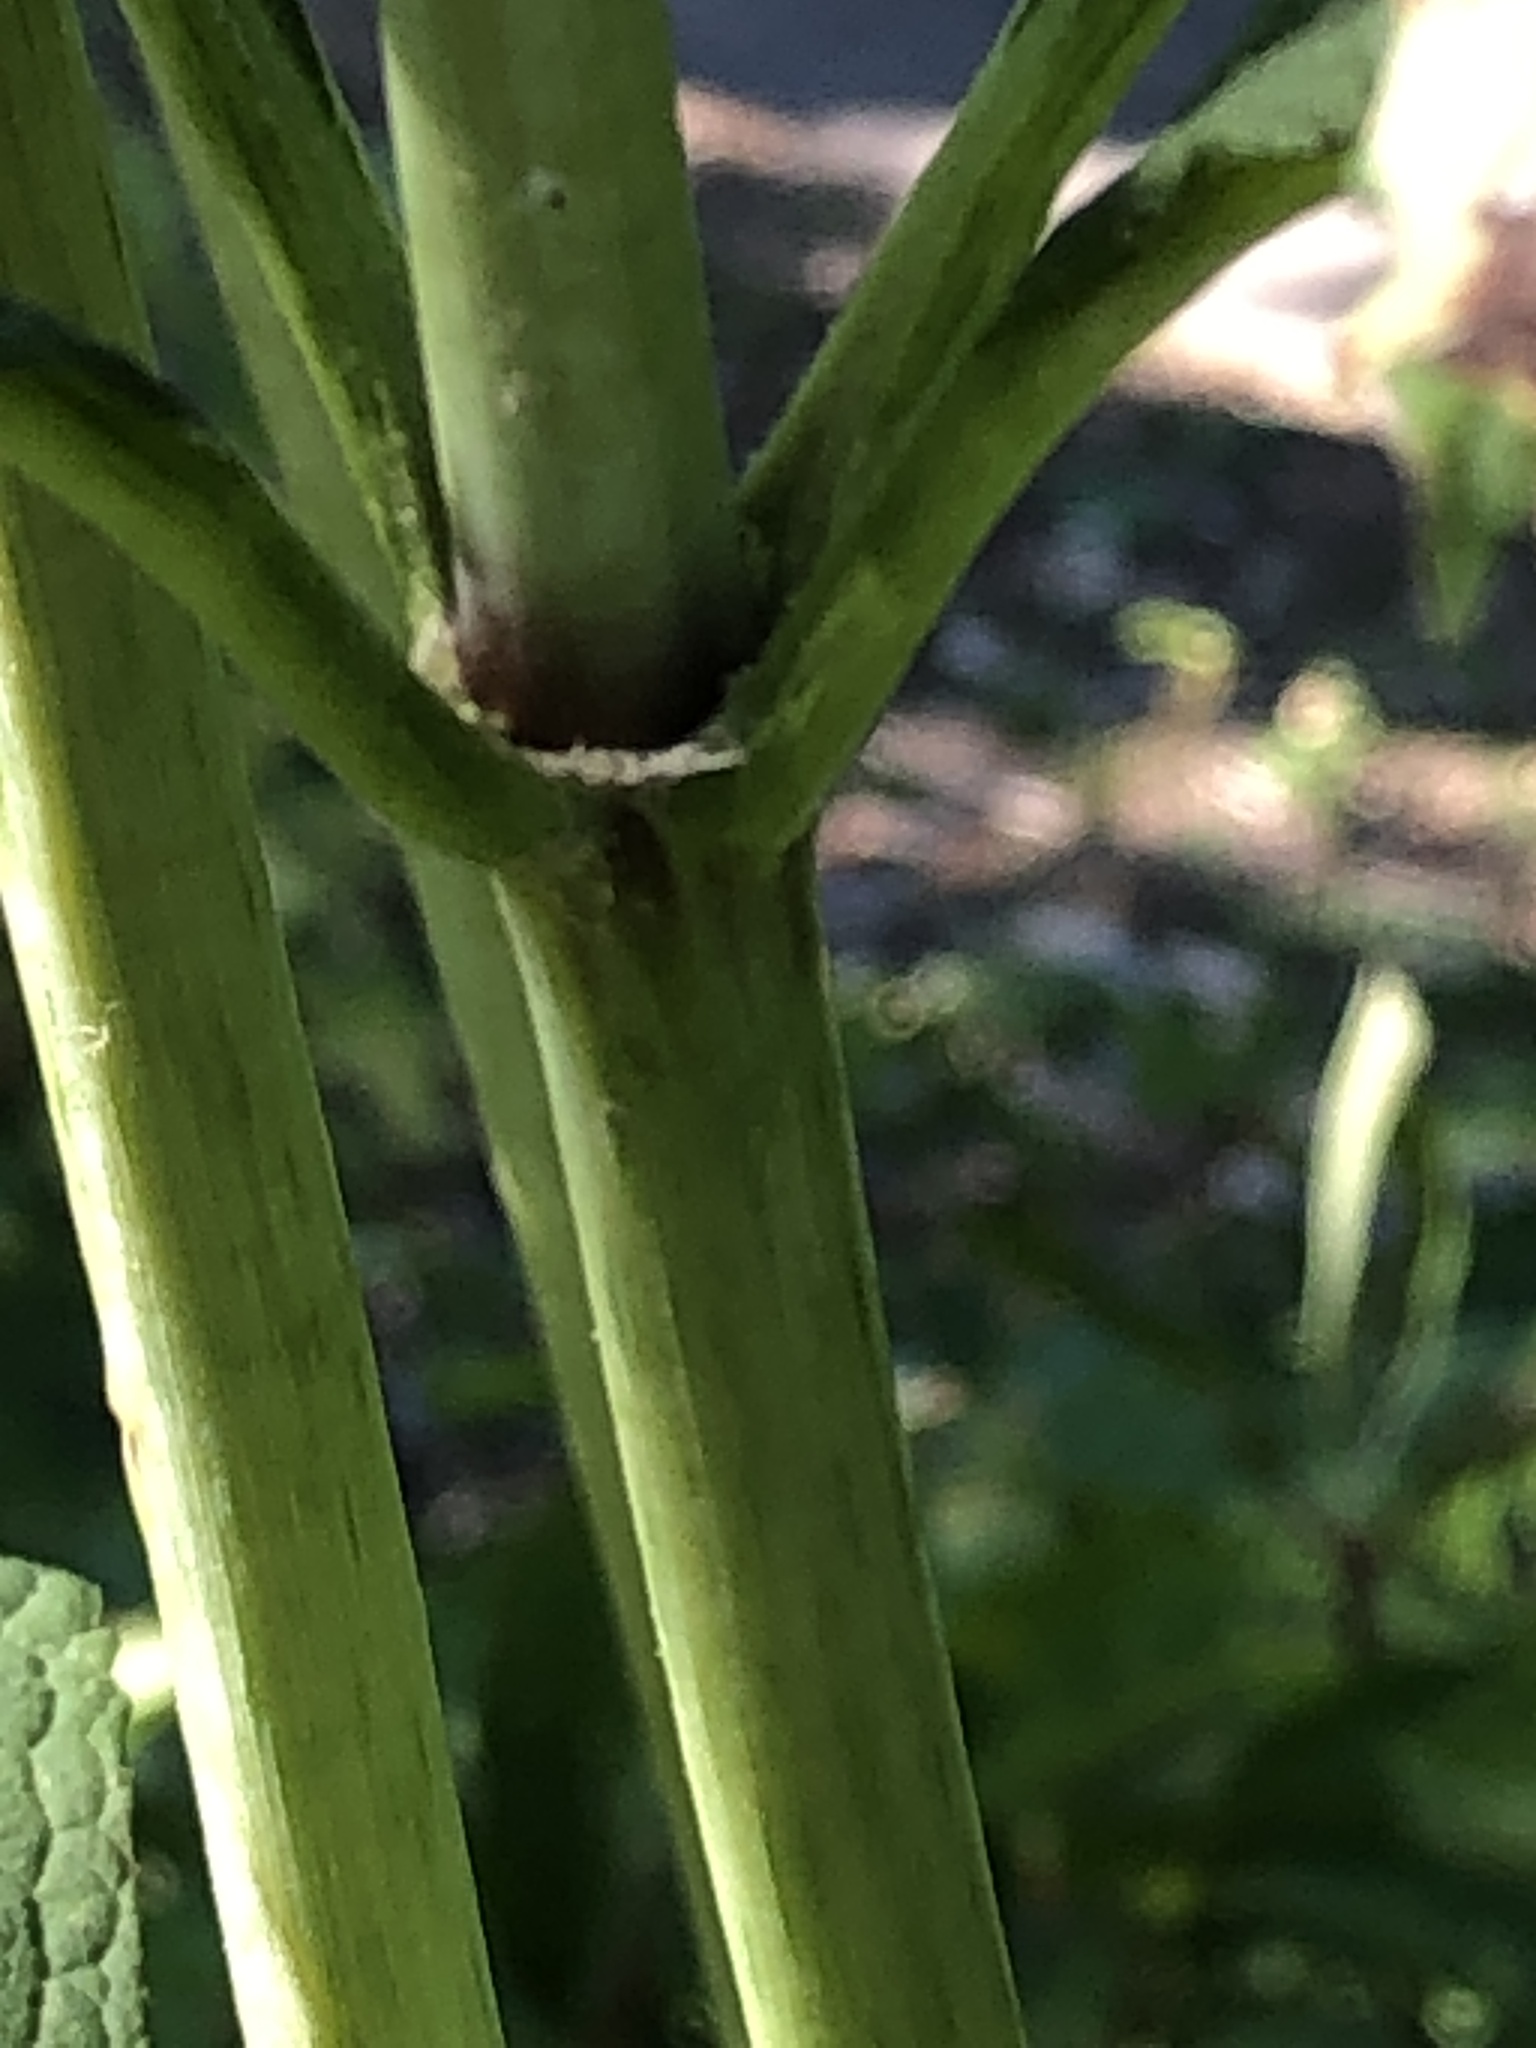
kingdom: Plantae
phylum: Tracheophyta
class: Magnoliopsida
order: Asterales
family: Asteraceae
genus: Eutrochium
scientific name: Eutrochium purpureum
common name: Gravelroot
